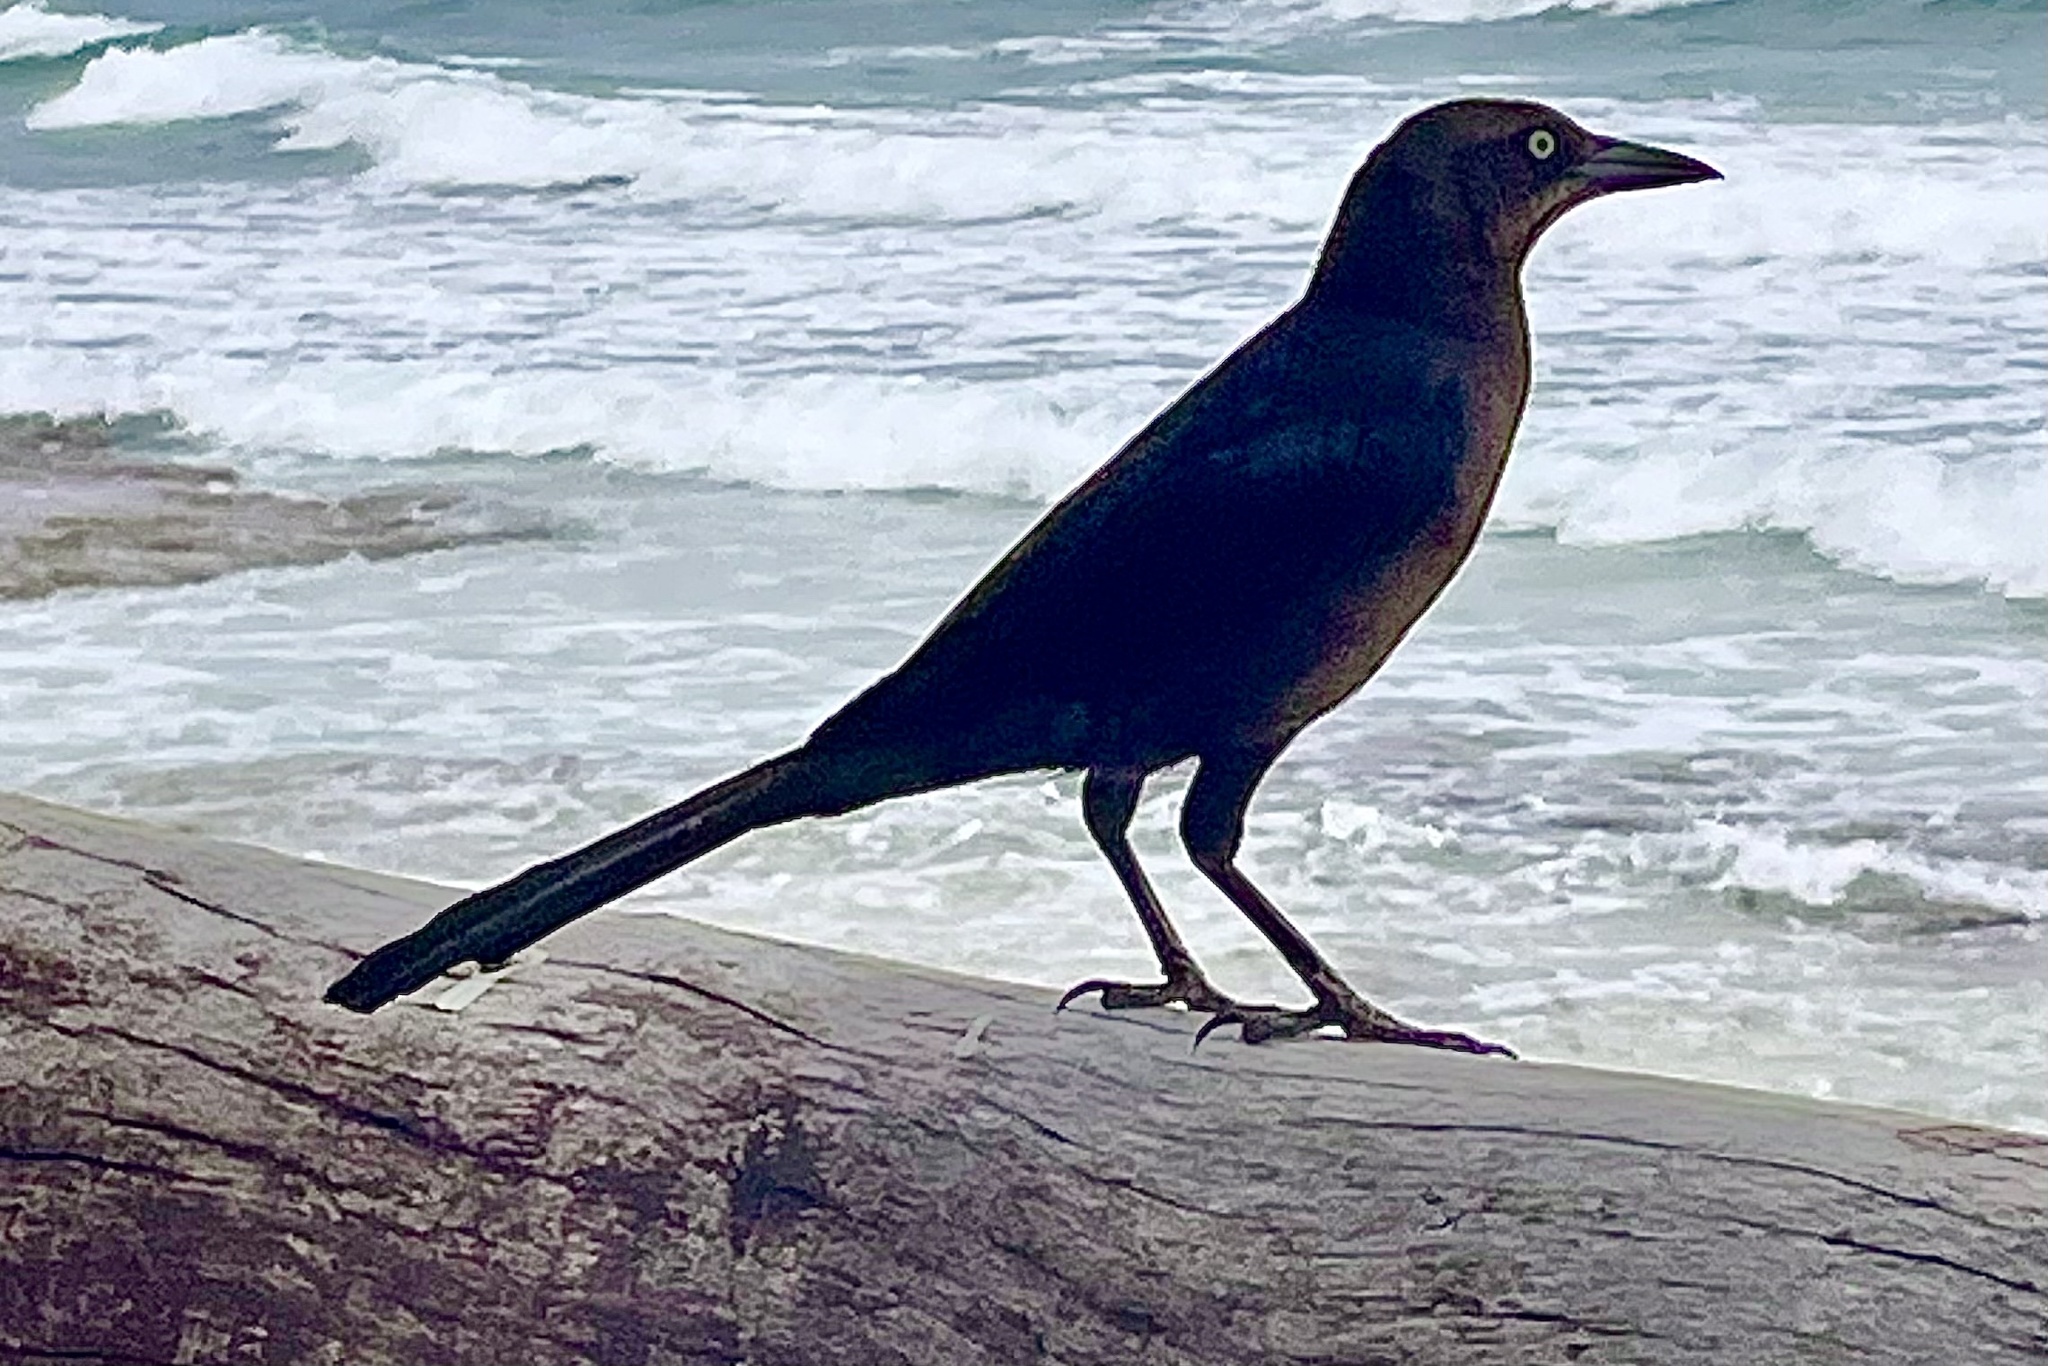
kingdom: Animalia
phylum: Chordata
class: Aves
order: Passeriformes
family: Icteridae
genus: Quiscalus
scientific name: Quiscalus mexicanus
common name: Great-tailed grackle
